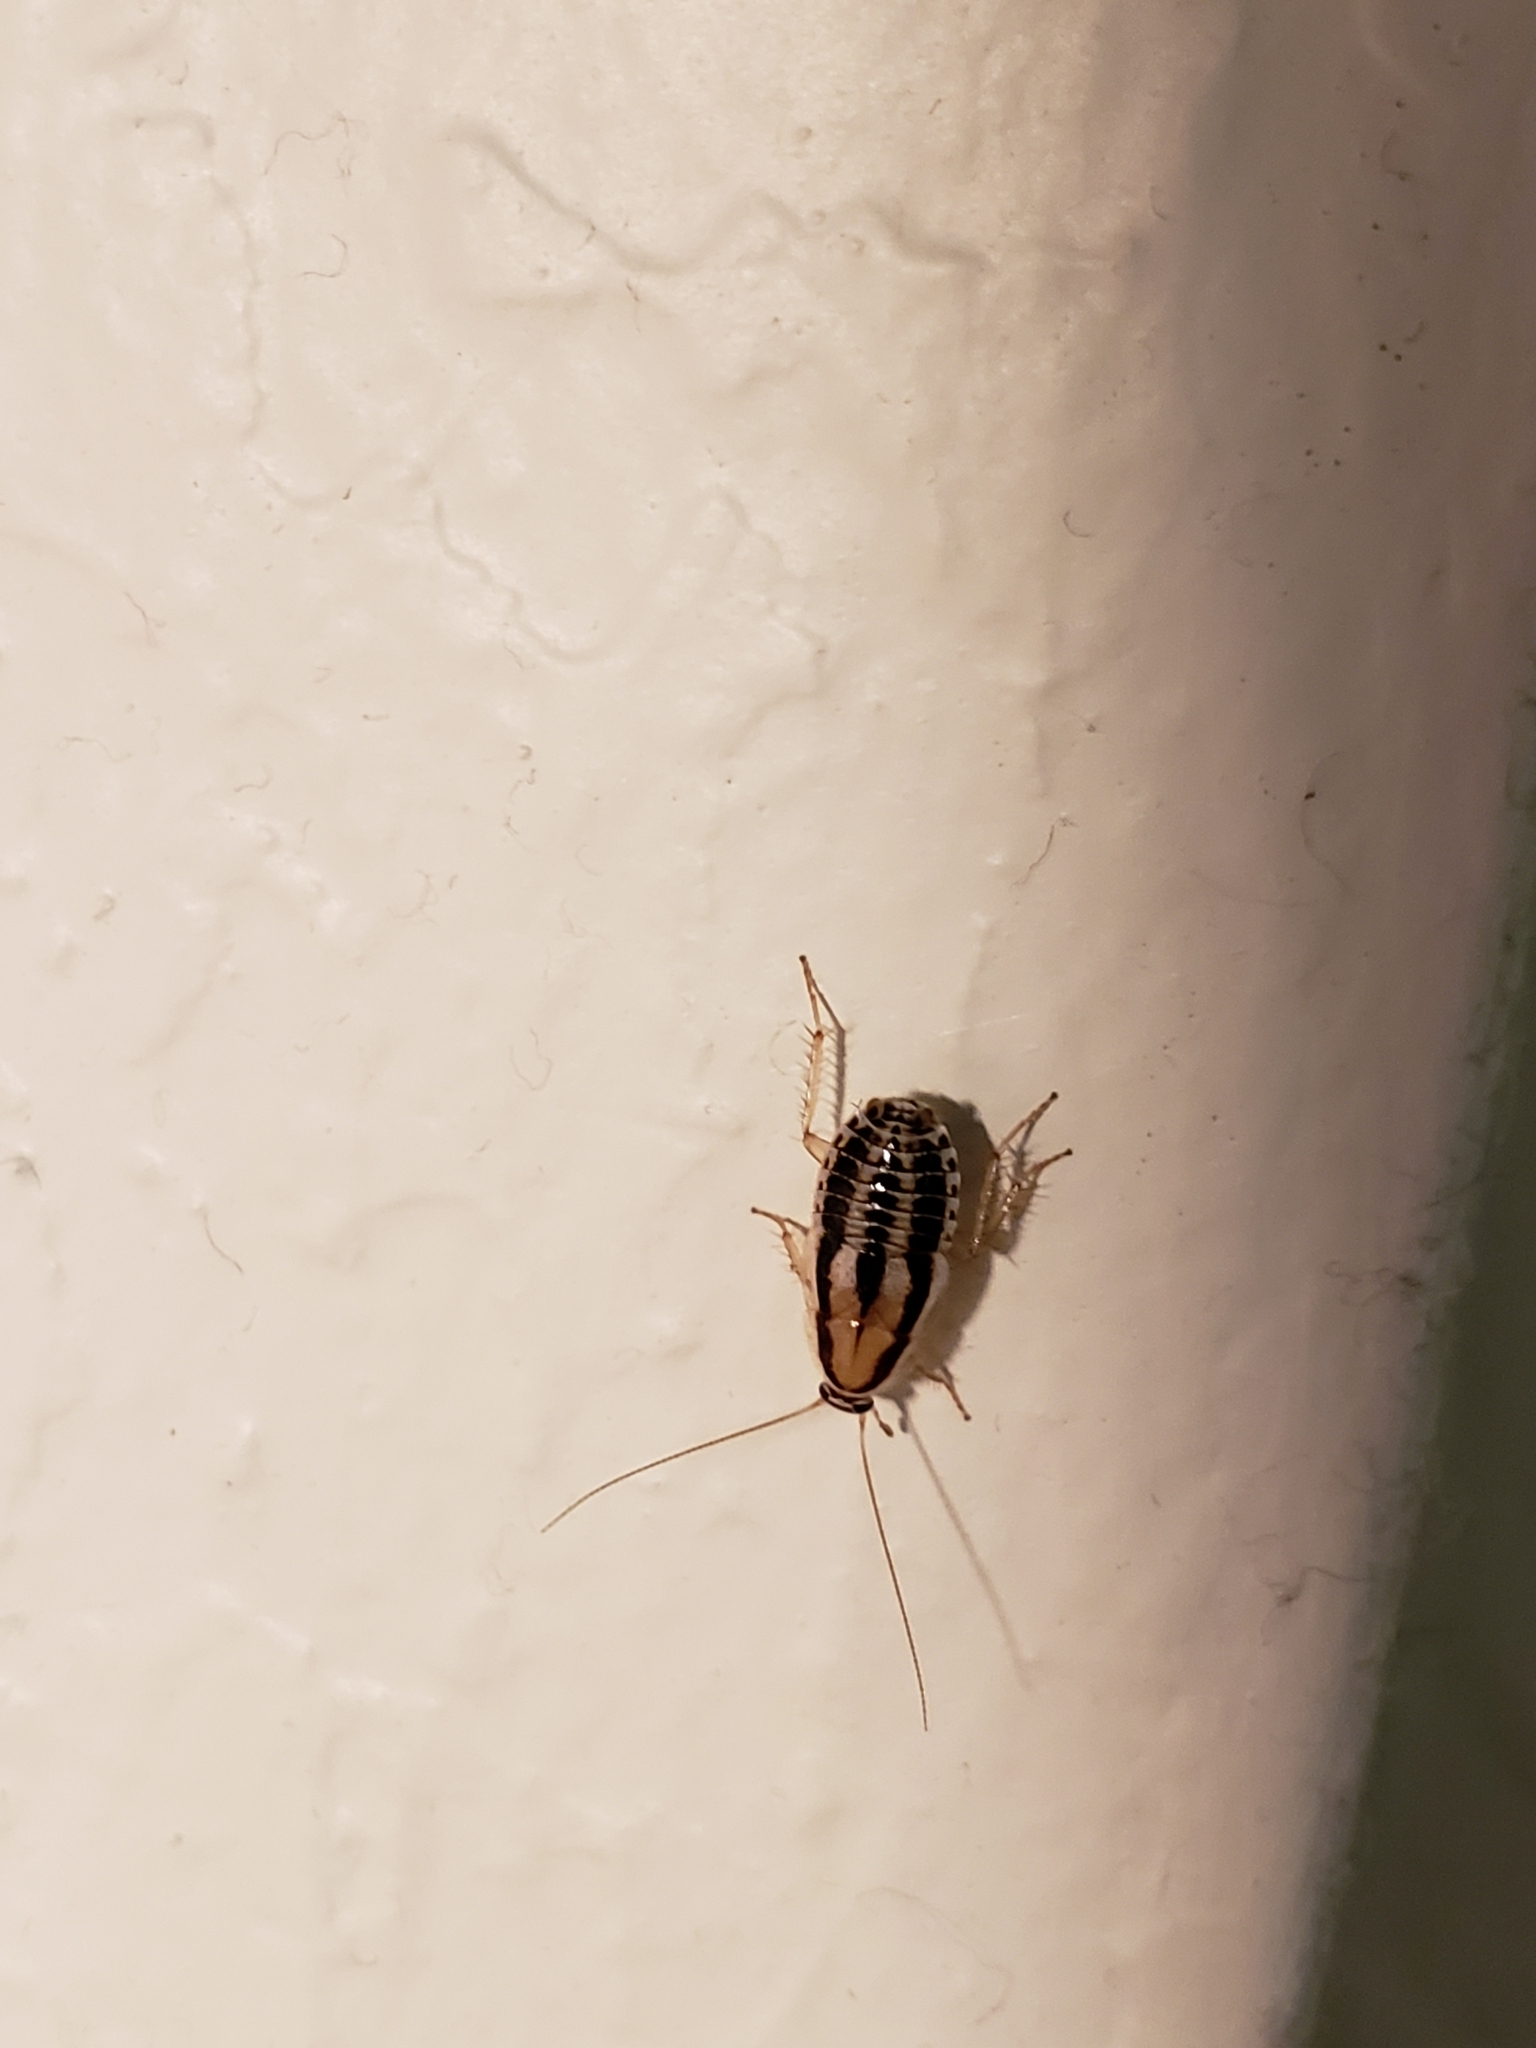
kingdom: Animalia
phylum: Arthropoda
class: Insecta
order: Blattodea
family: Ectobiidae
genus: Luridiblatta
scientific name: Luridiblatta trivittata
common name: Three-lined cockroach
